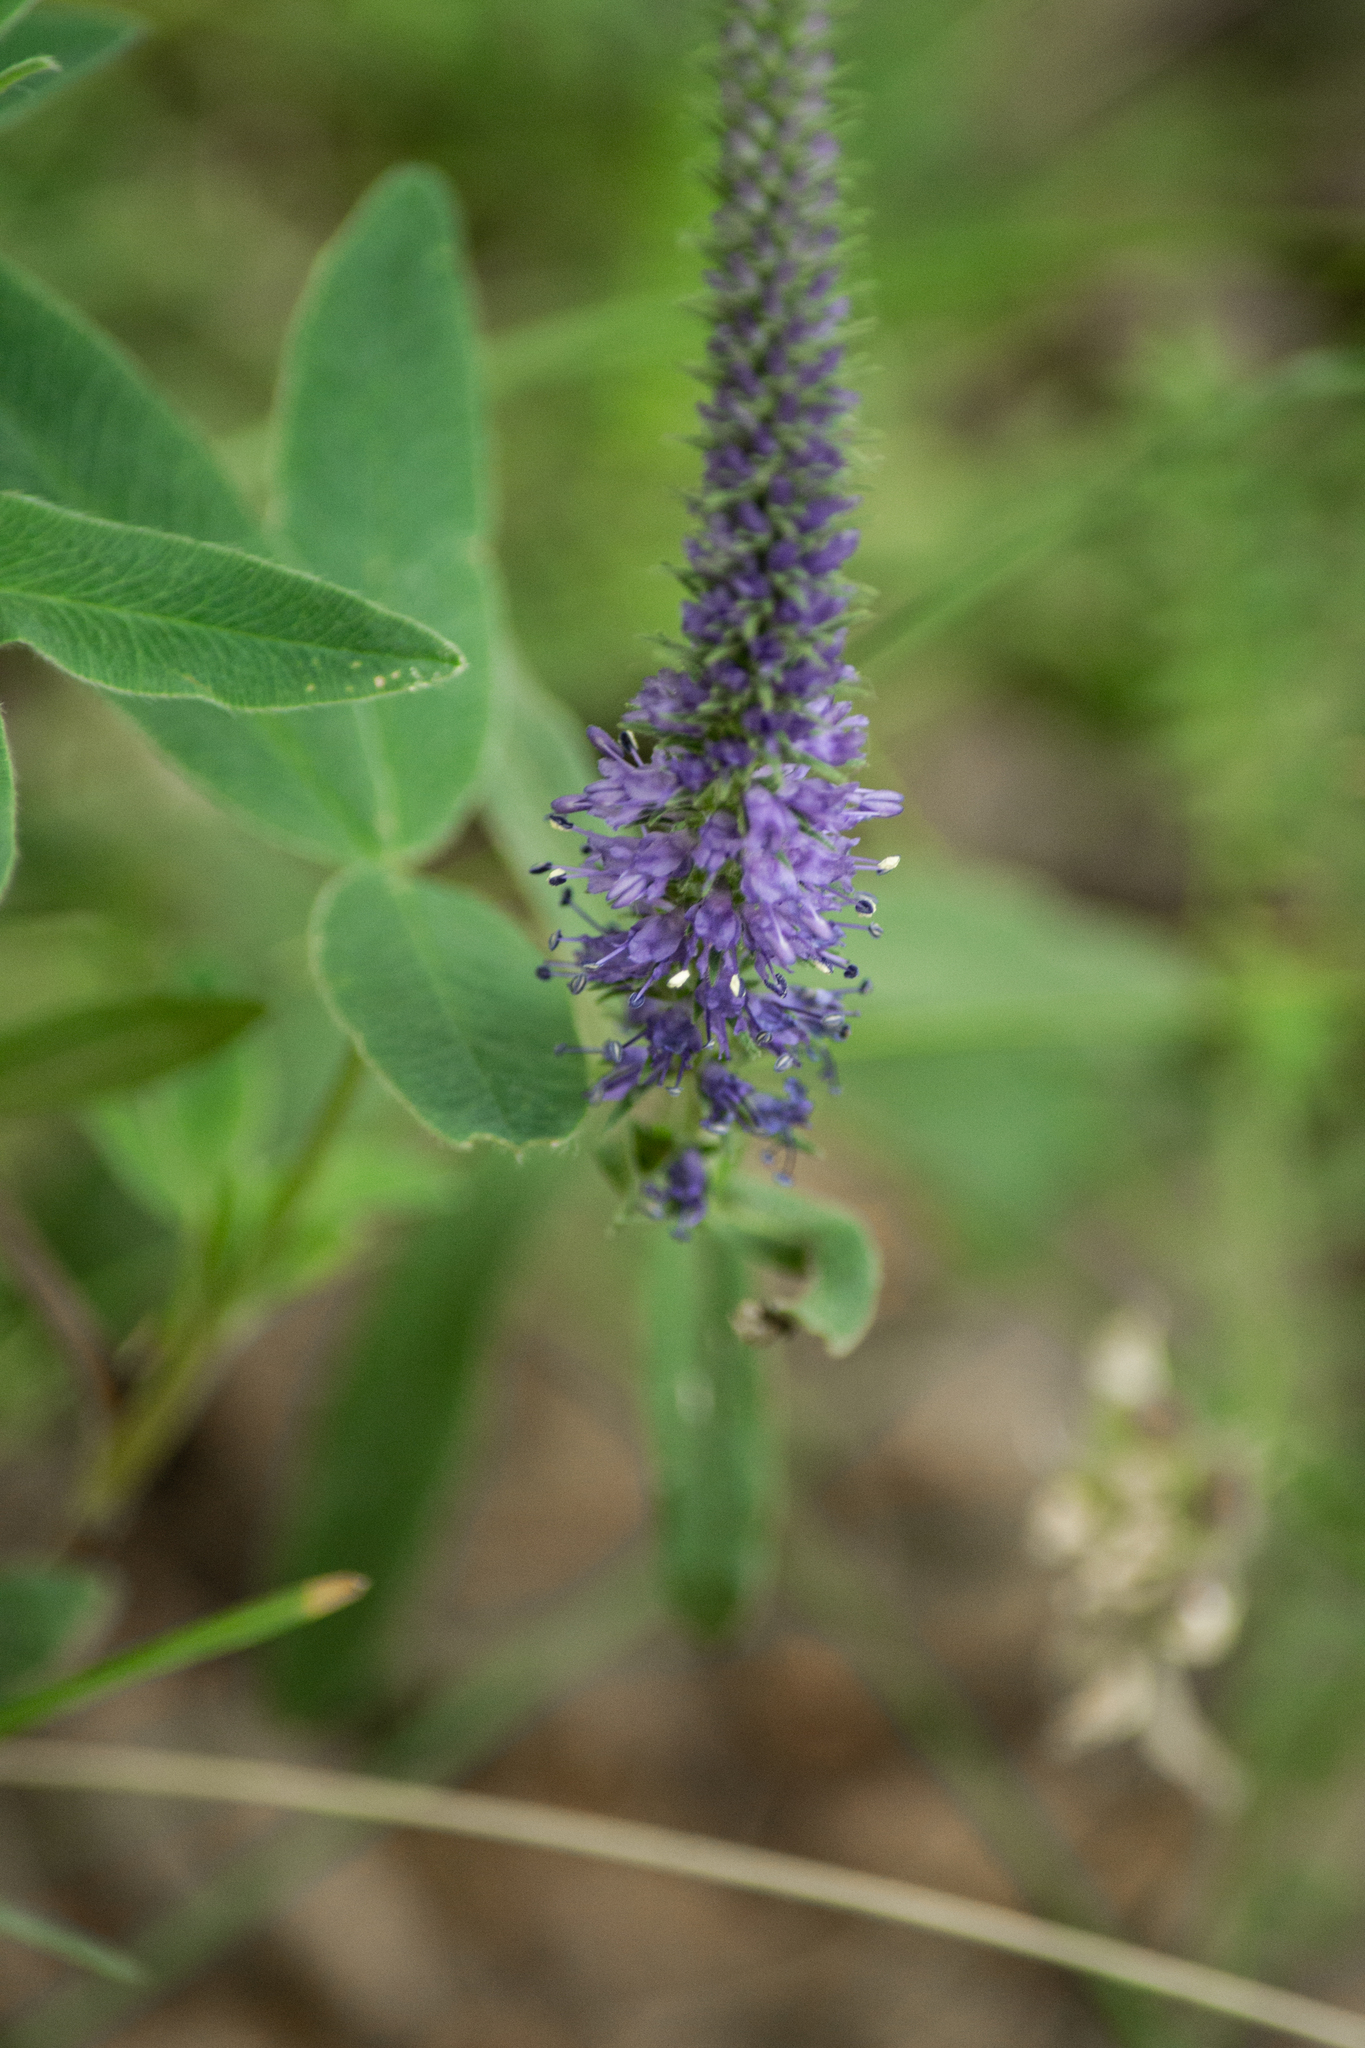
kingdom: Plantae
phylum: Tracheophyta
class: Magnoliopsida
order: Lamiales
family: Plantaginaceae
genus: Veronica
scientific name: Veronica spicata
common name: Spiked speedwell
